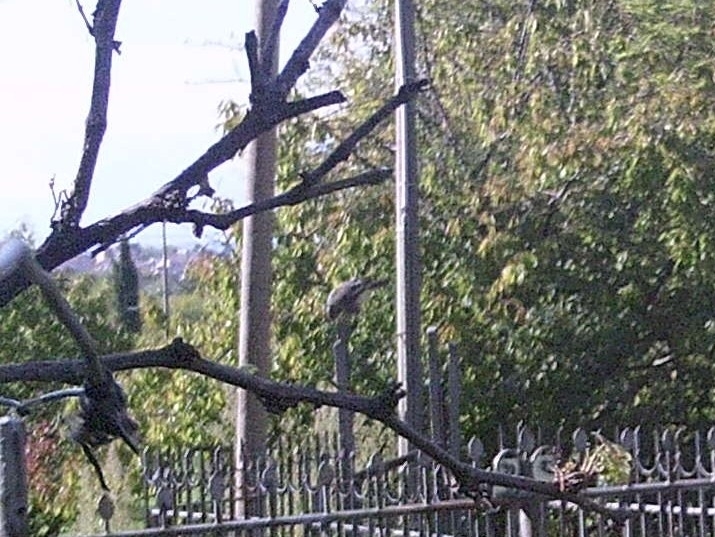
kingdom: Animalia
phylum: Chordata
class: Aves
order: Accipitriformes
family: Accipitridae
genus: Buteo
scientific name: Buteo buteo
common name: Common buzzard
